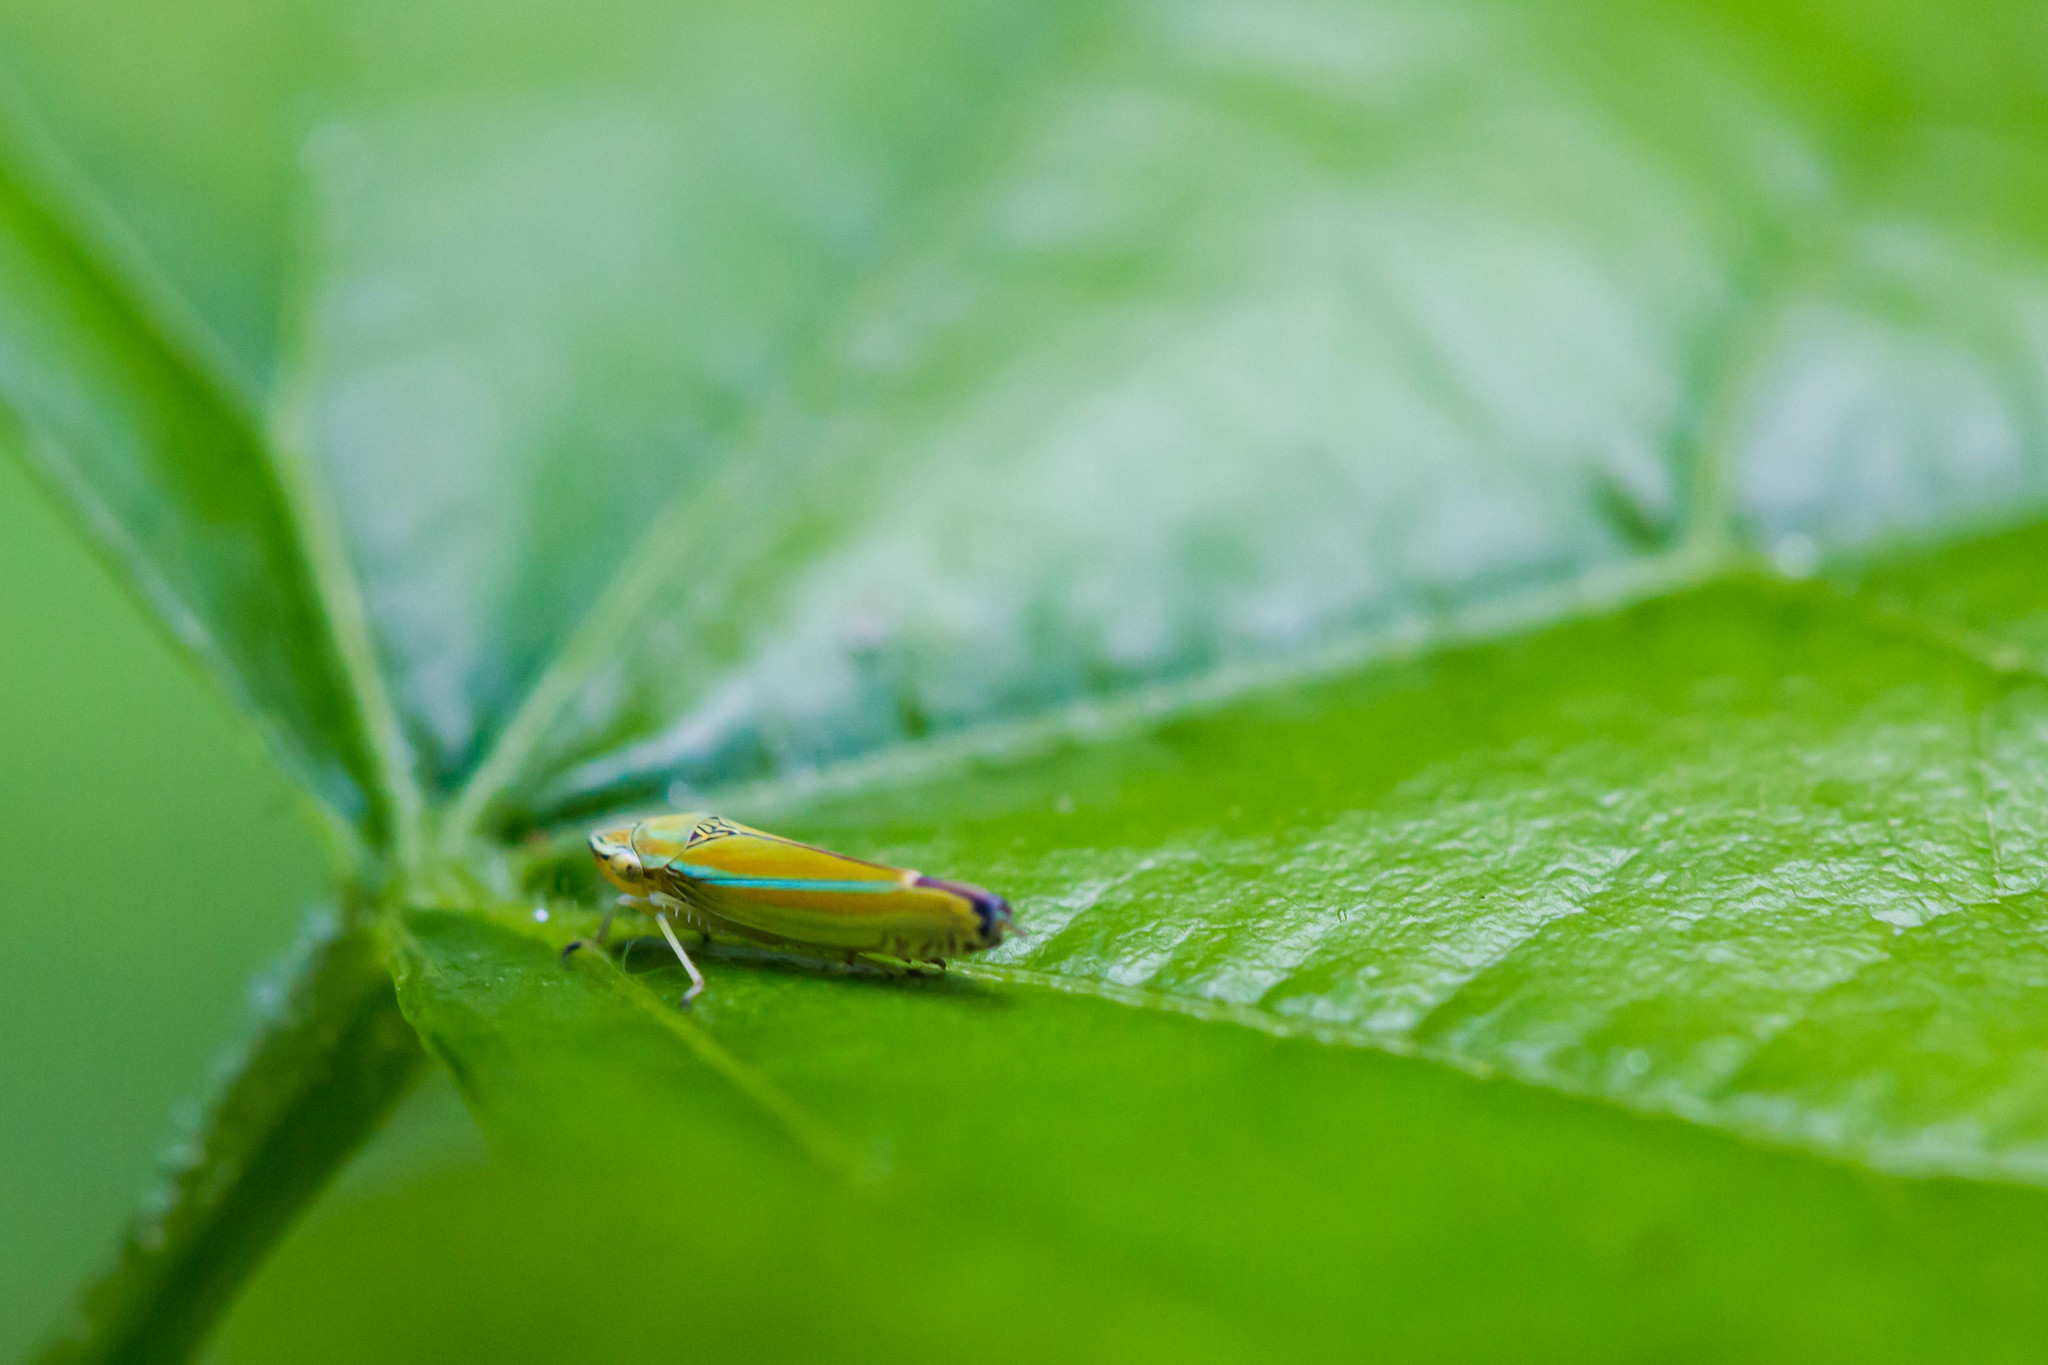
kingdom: Animalia
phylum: Arthropoda
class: Insecta
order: Hemiptera
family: Cicadellidae
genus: Graphocephala
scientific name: Graphocephala versuta
